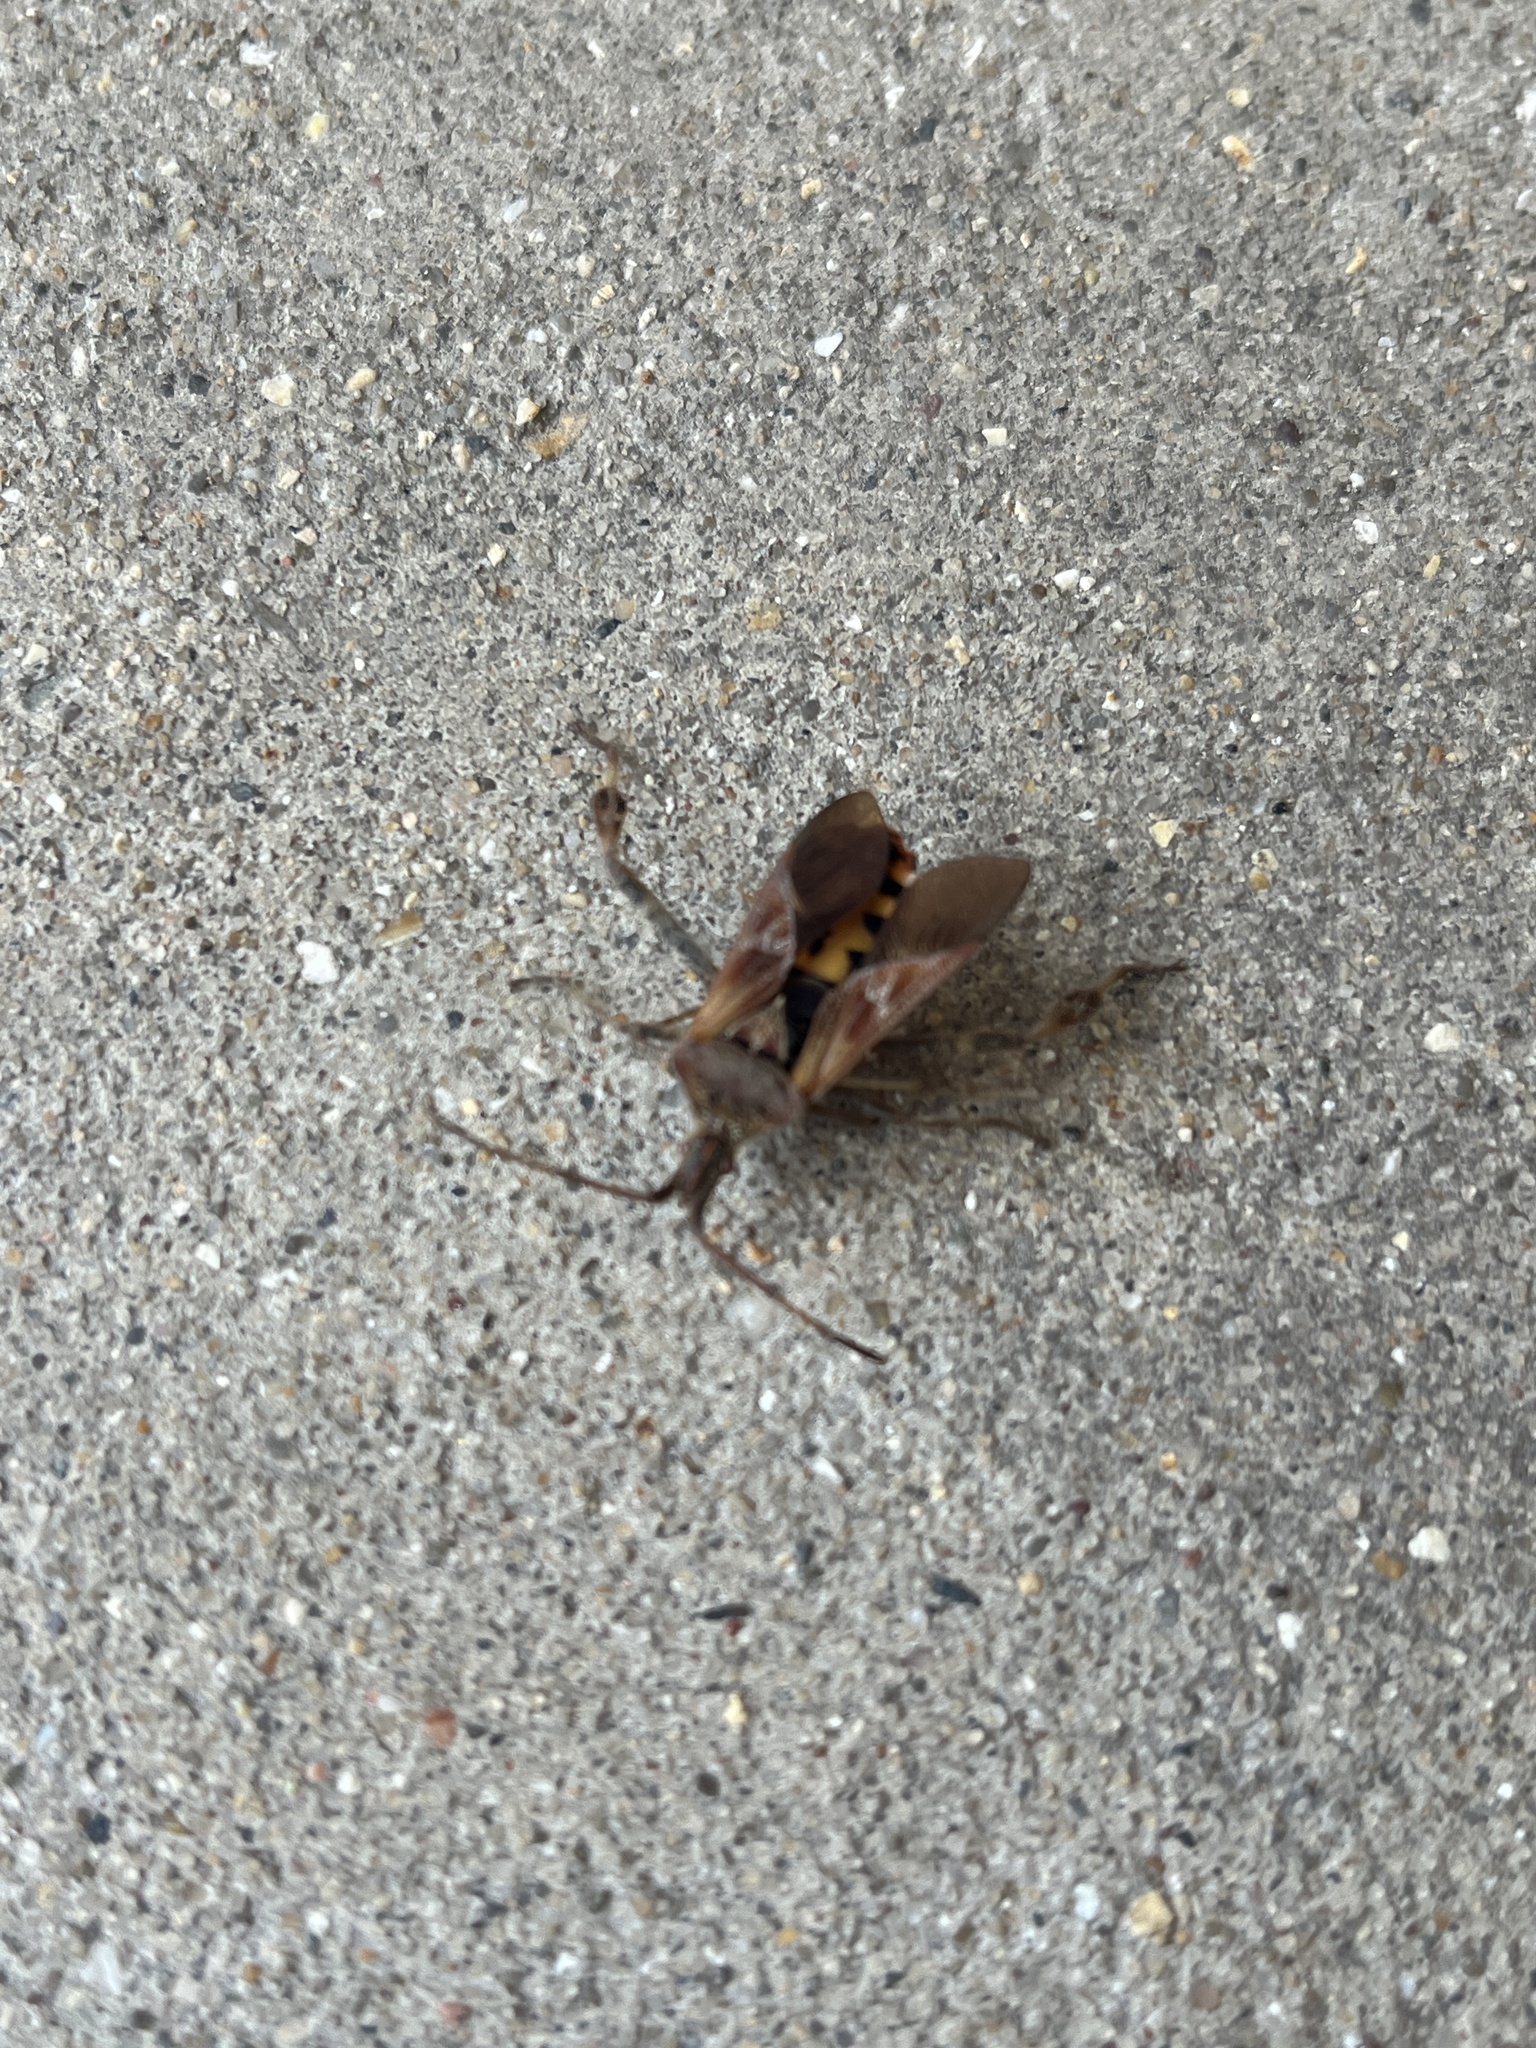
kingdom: Animalia
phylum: Arthropoda
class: Insecta
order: Hemiptera
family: Coreidae
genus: Leptoglossus
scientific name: Leptoglossus occidentalis
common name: Western conifer-seed bug
